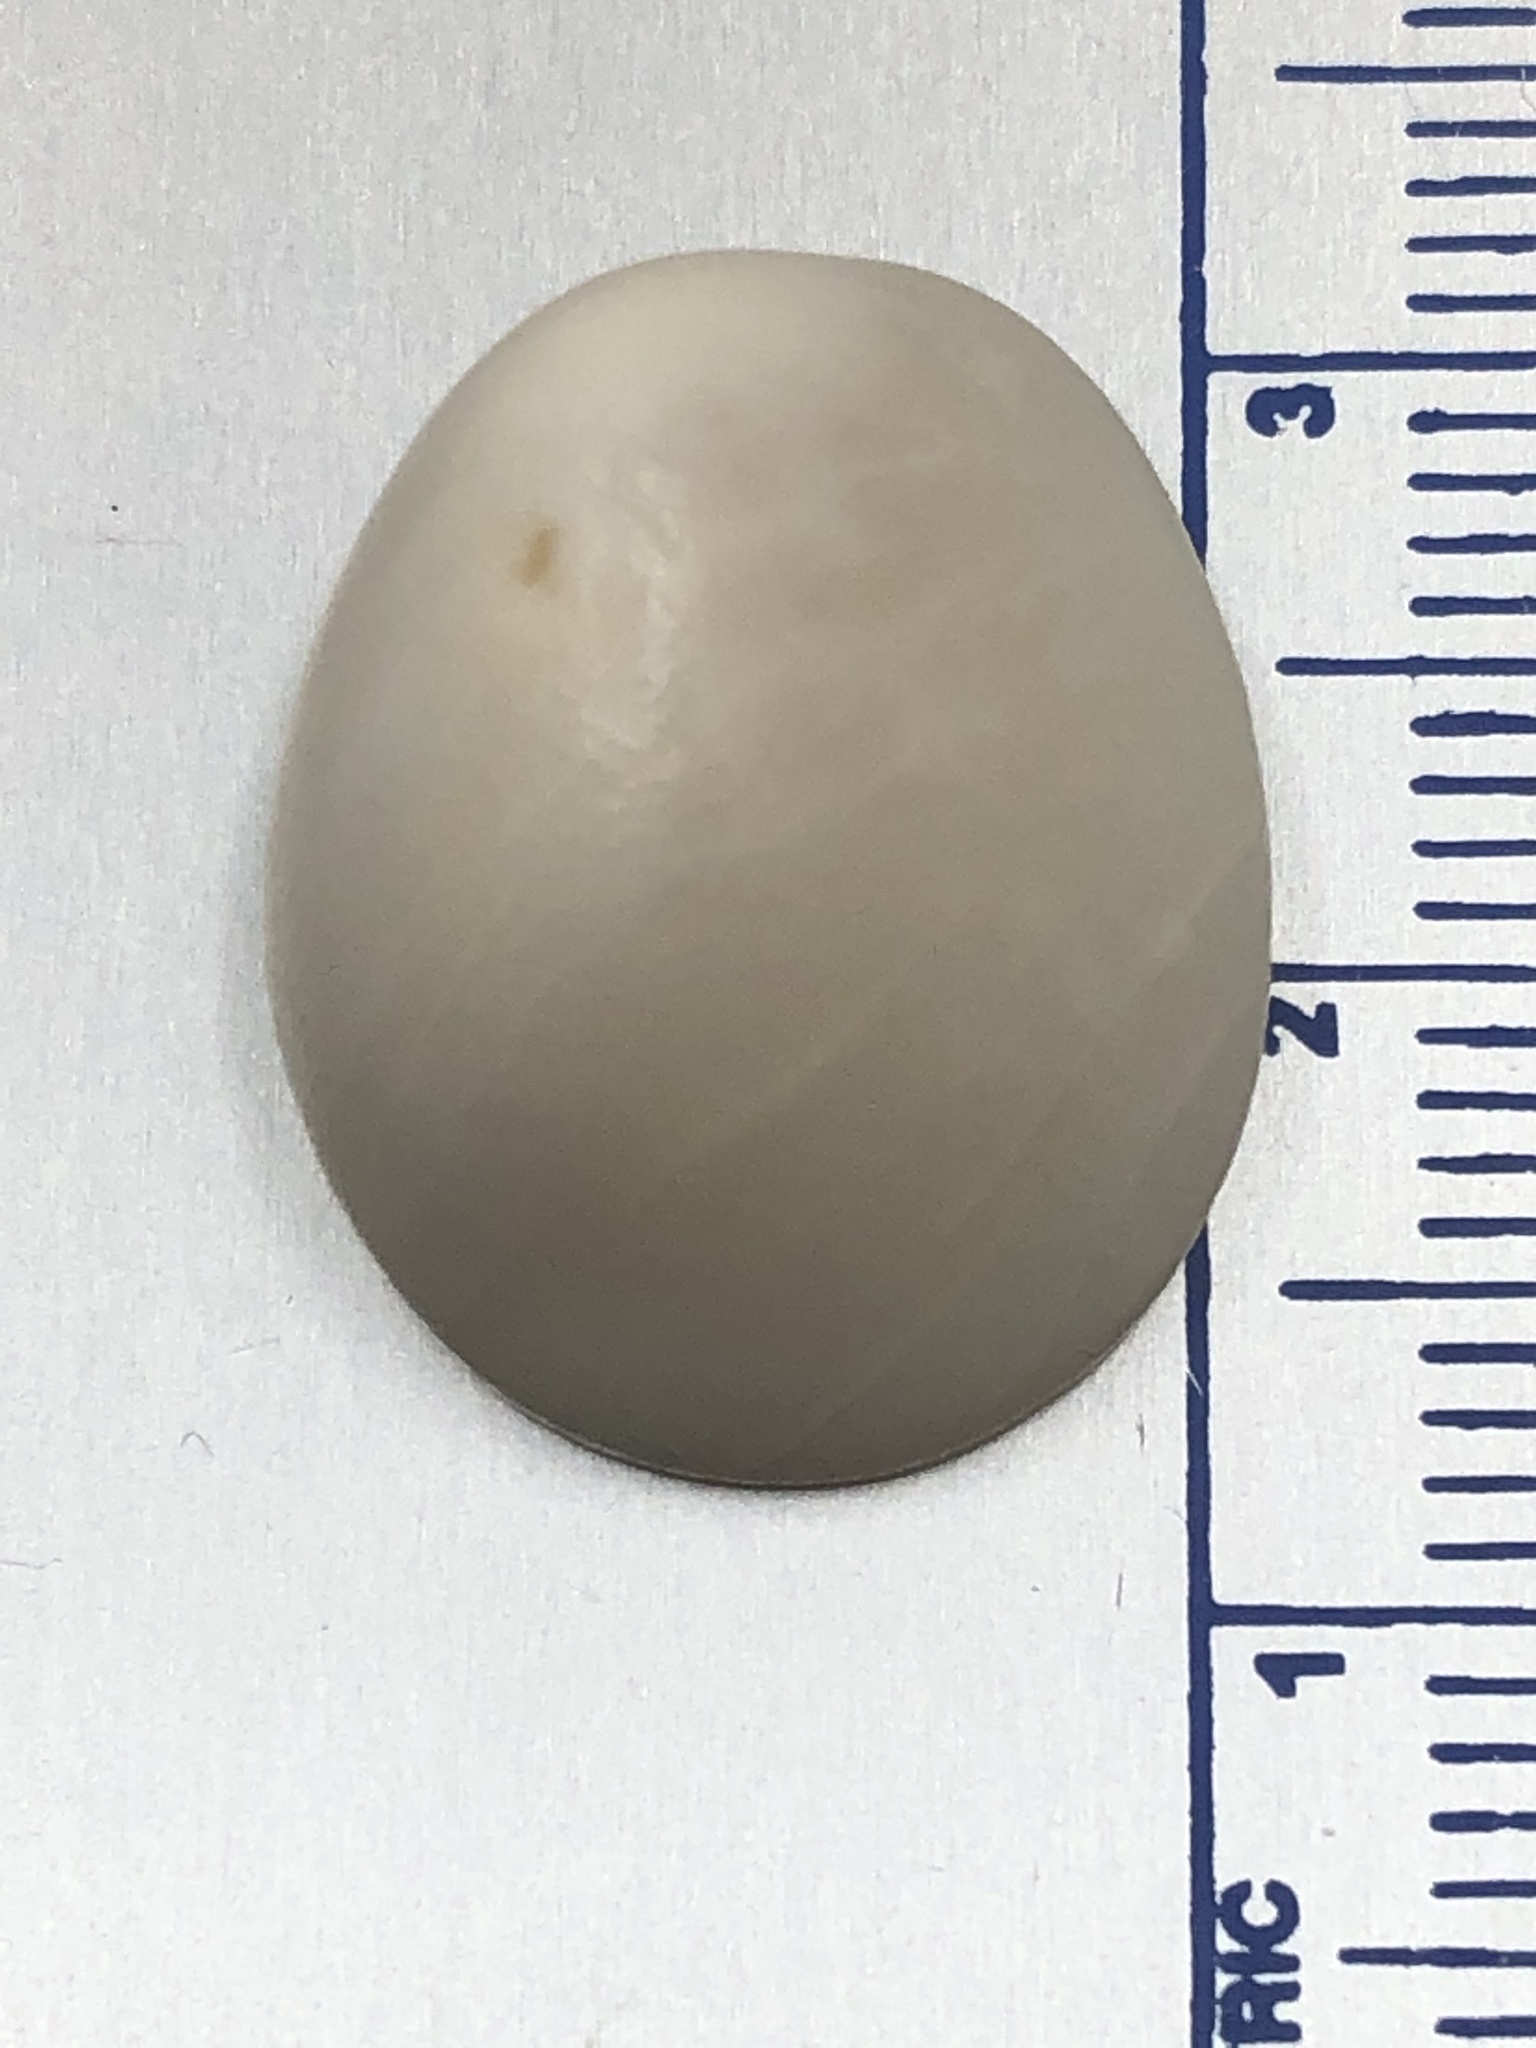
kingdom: Animalia
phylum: Mollusca
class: Gastropoda
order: Littorinimorpha
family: Strombidae
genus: Aliger
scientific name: Aliger gigas
